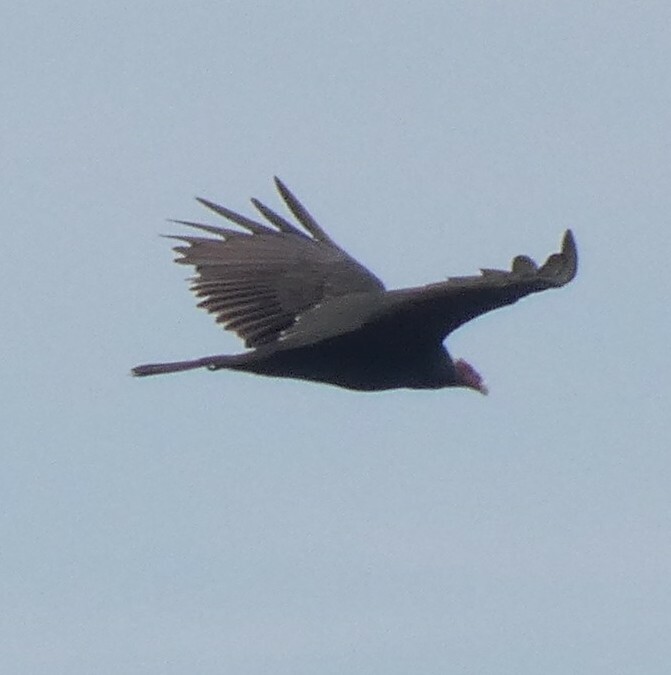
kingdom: Animalia
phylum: Chordata
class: Aves
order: Accipitriformes
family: Cathartidae
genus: Cathartes
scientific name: Cathartes aura
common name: Turkey vulture
